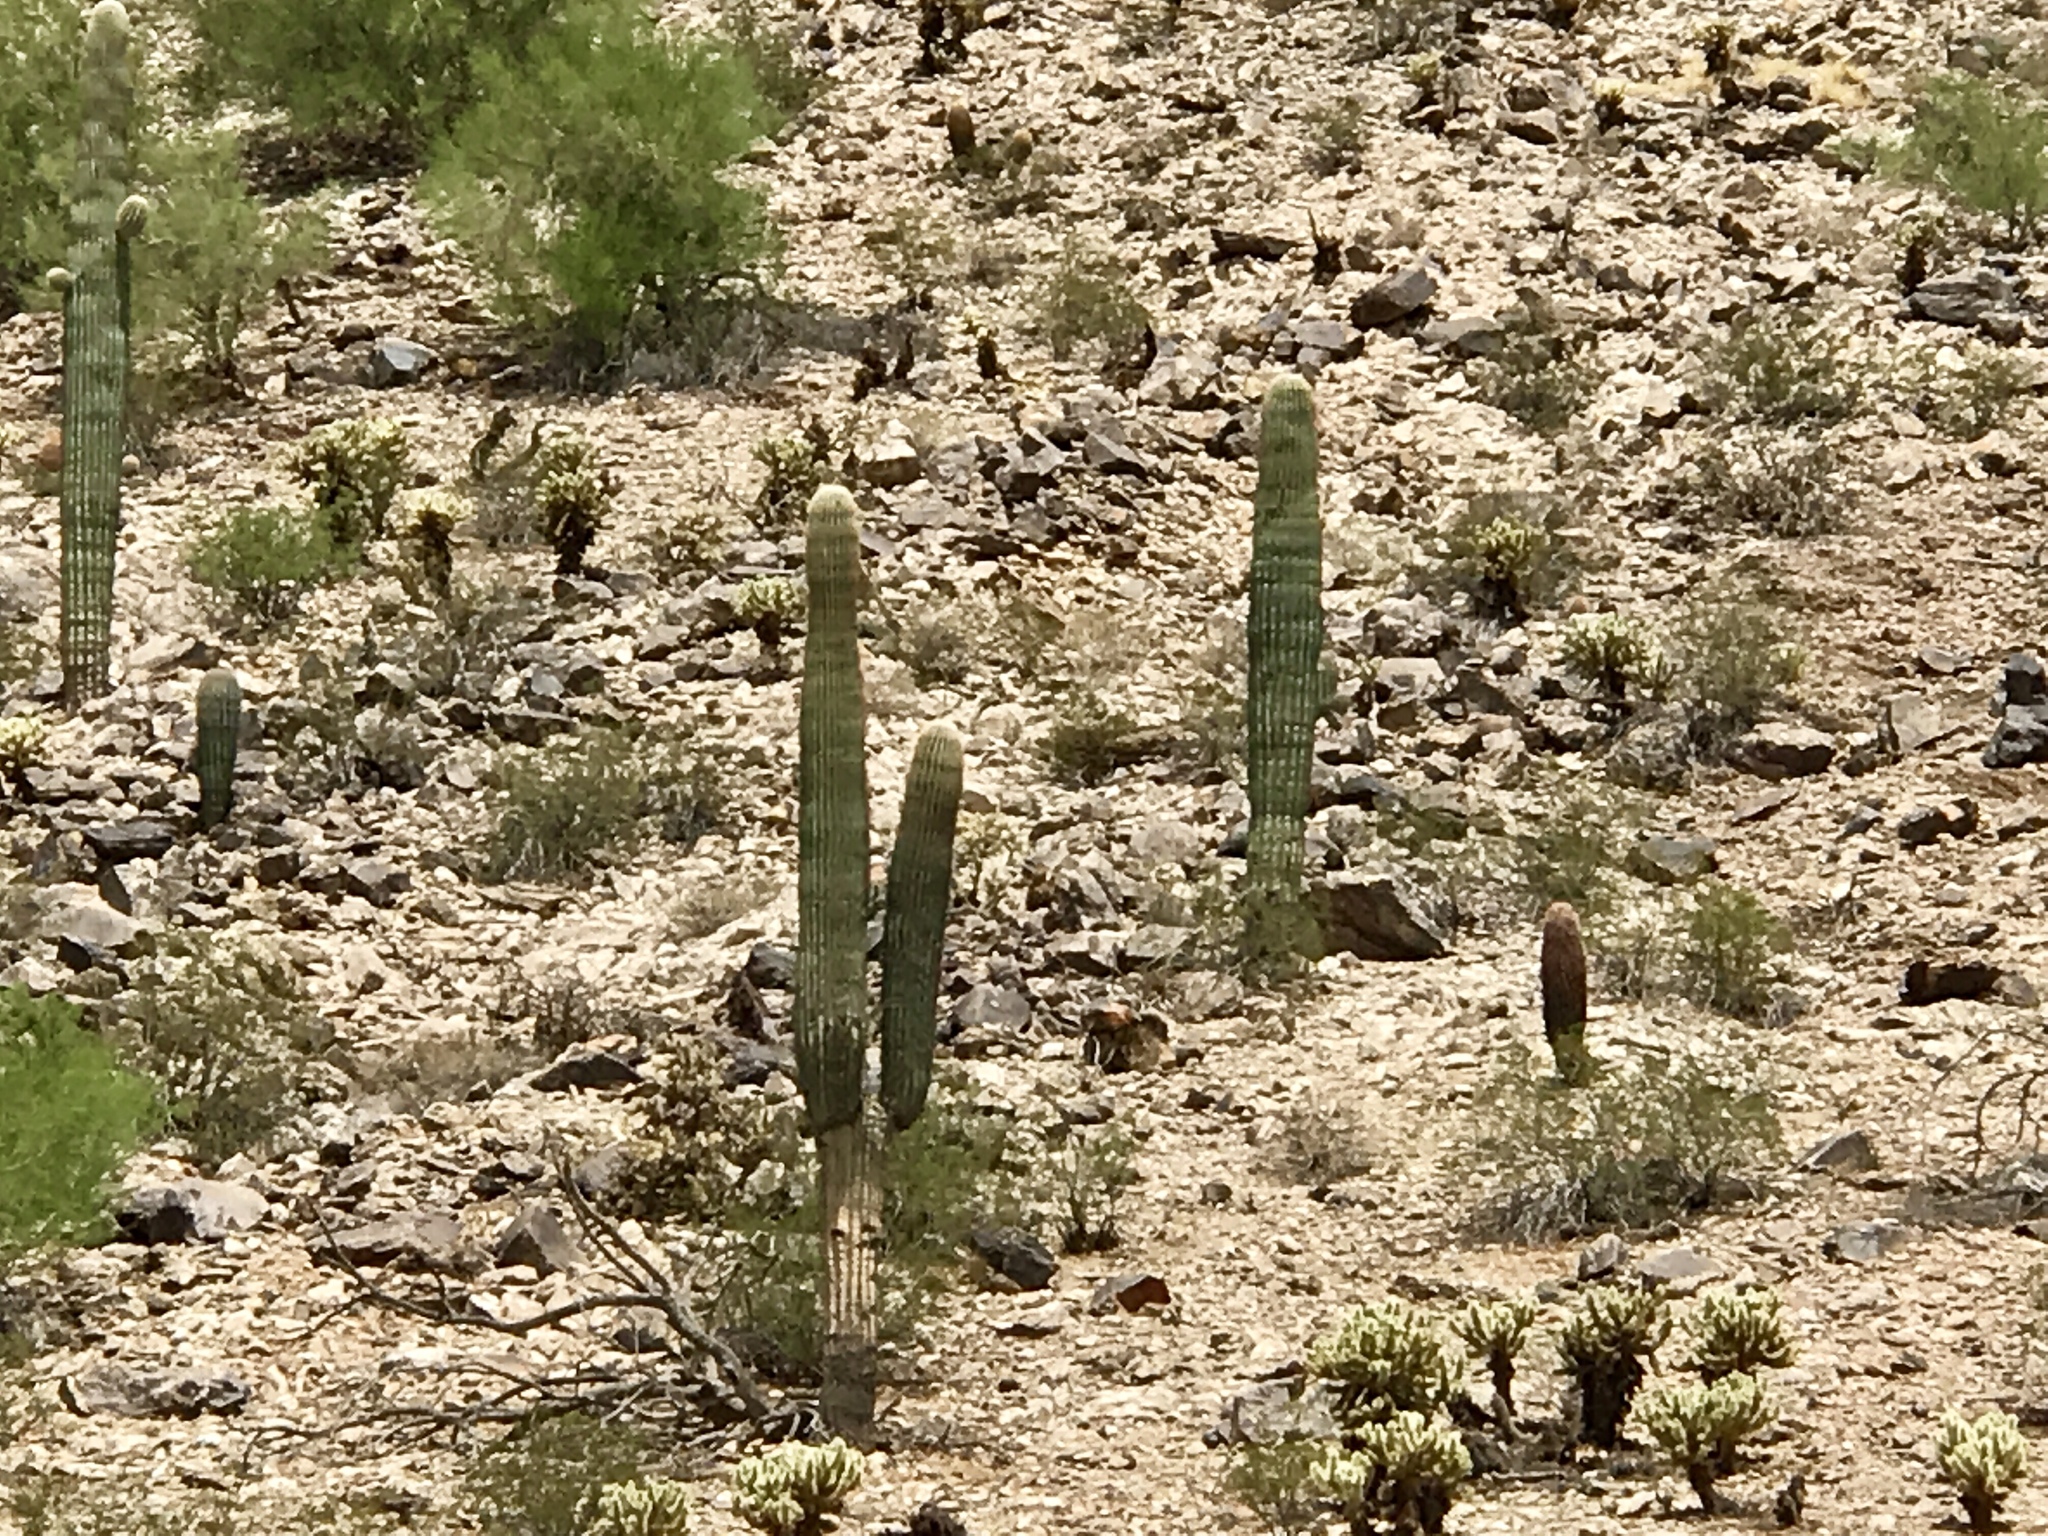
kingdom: Plantae
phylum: Tracheophyta
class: Magnoliopsida
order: Caryophyllales
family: Cactaceae
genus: Carnegiea
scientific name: Carnegiea gigantea
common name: Saguaro
